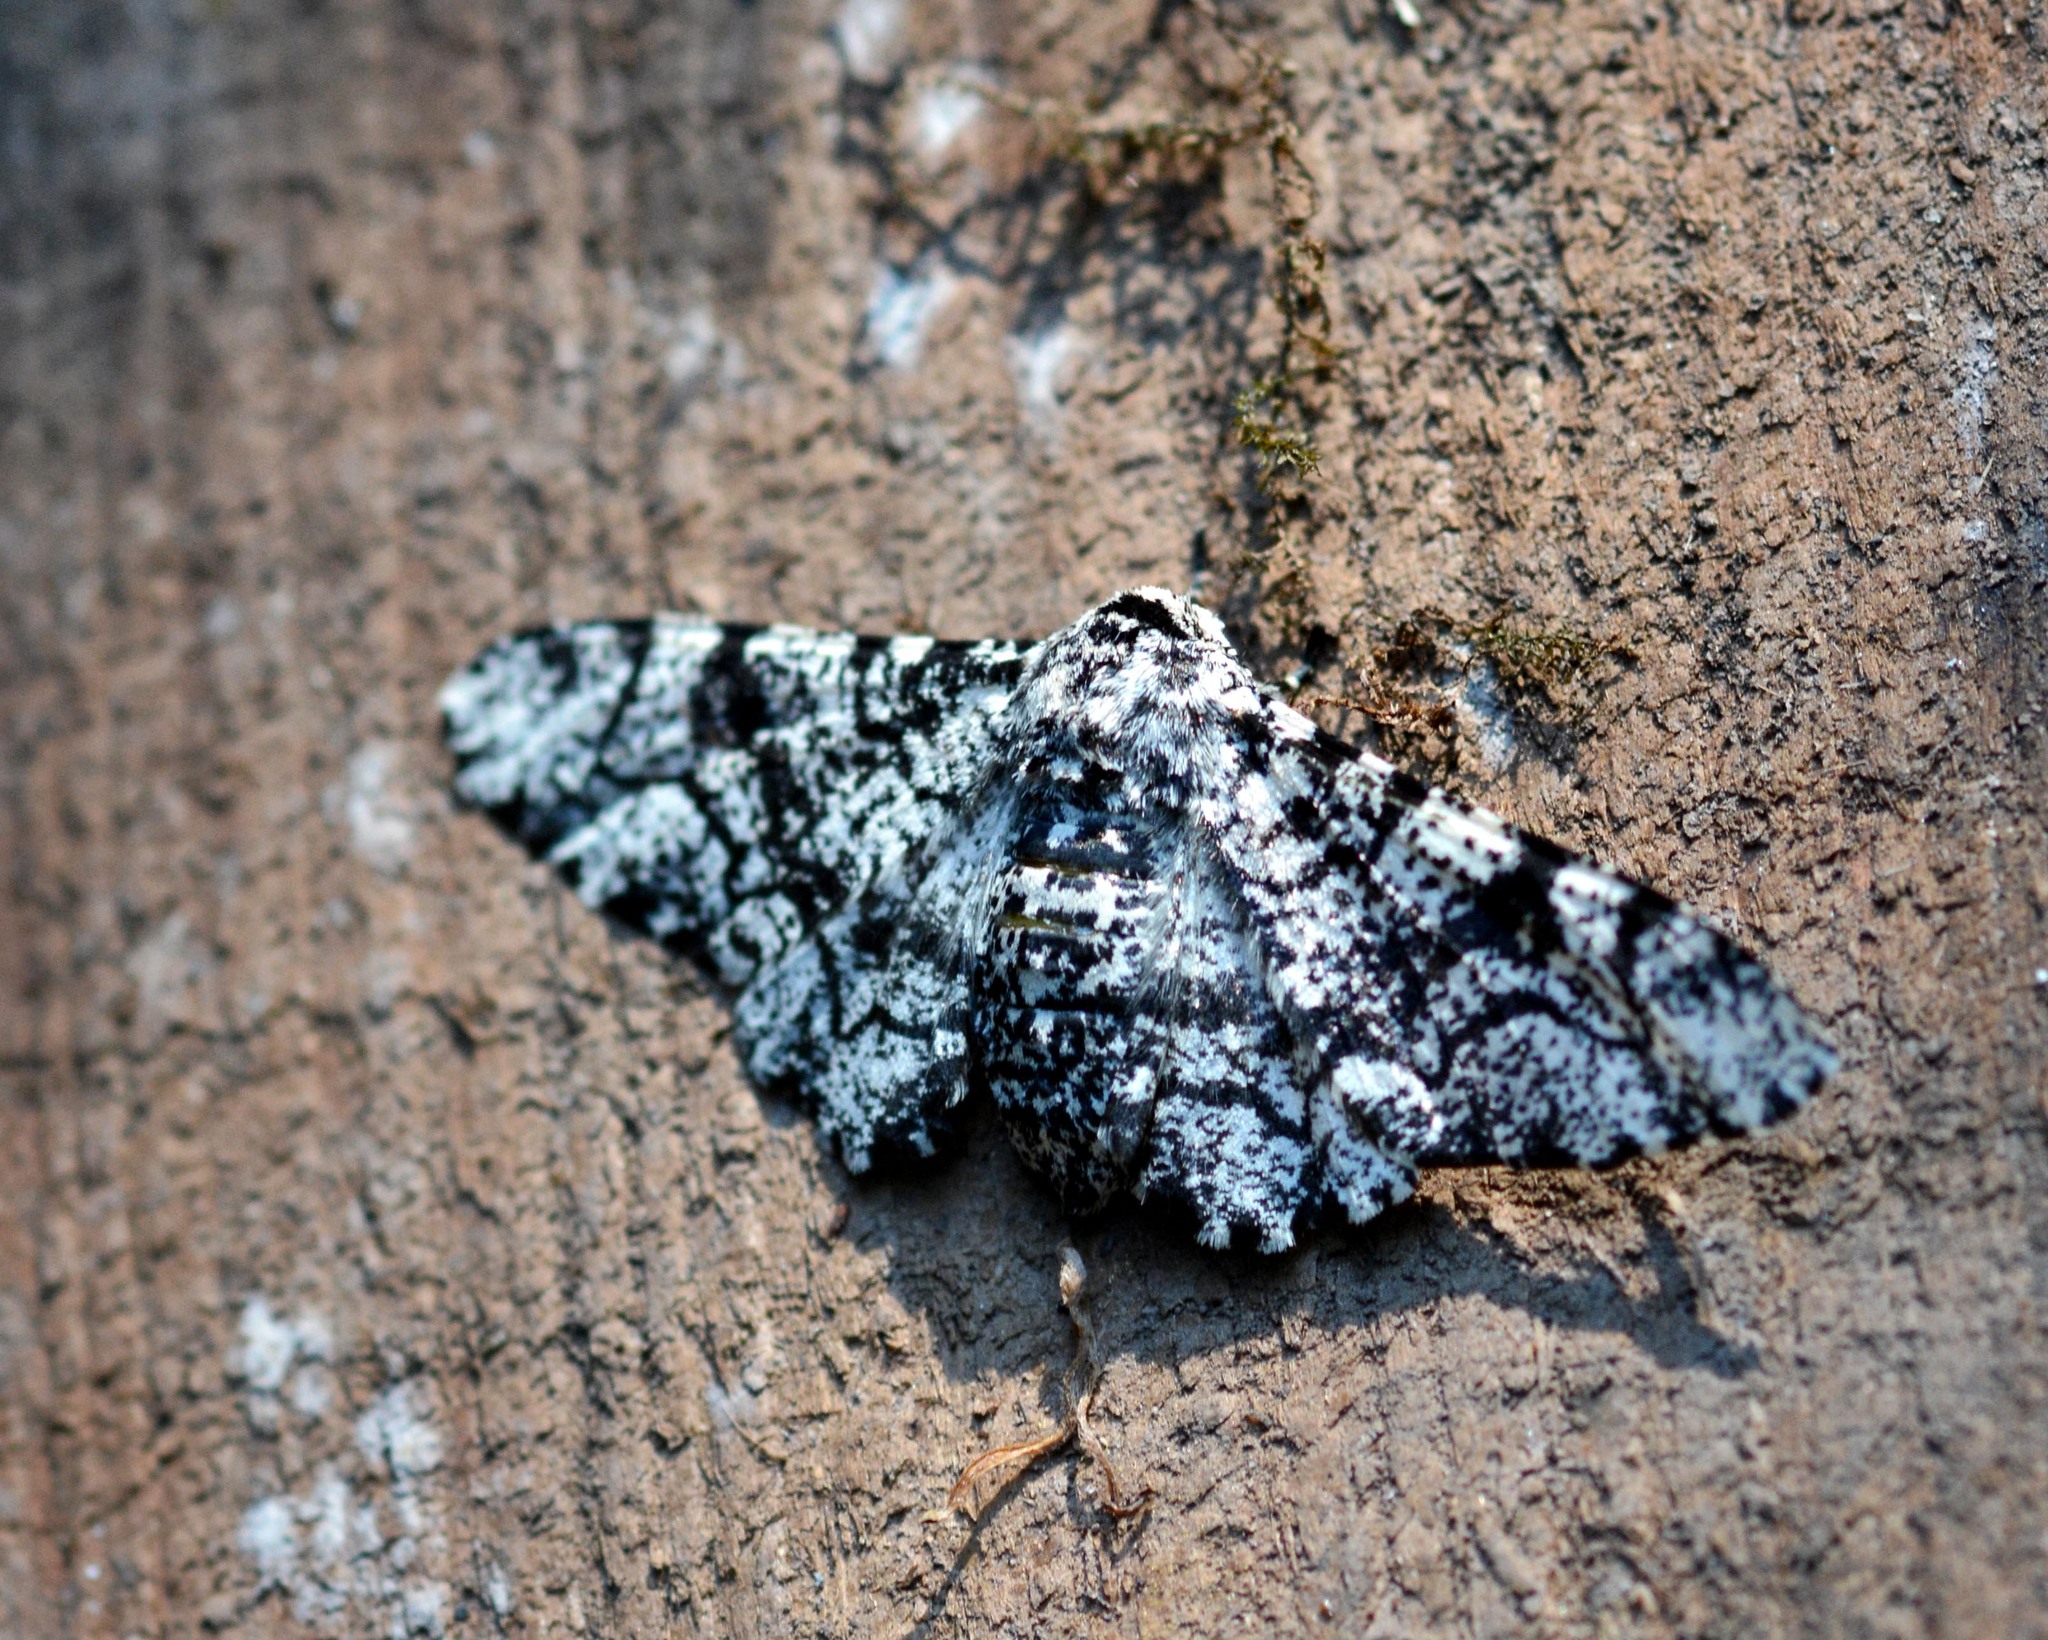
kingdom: Animalia
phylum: Arthropoda
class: Insecta
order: Lepidoptera
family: Geometridae
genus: Biston
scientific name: Biston betularia
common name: Peppered moth
